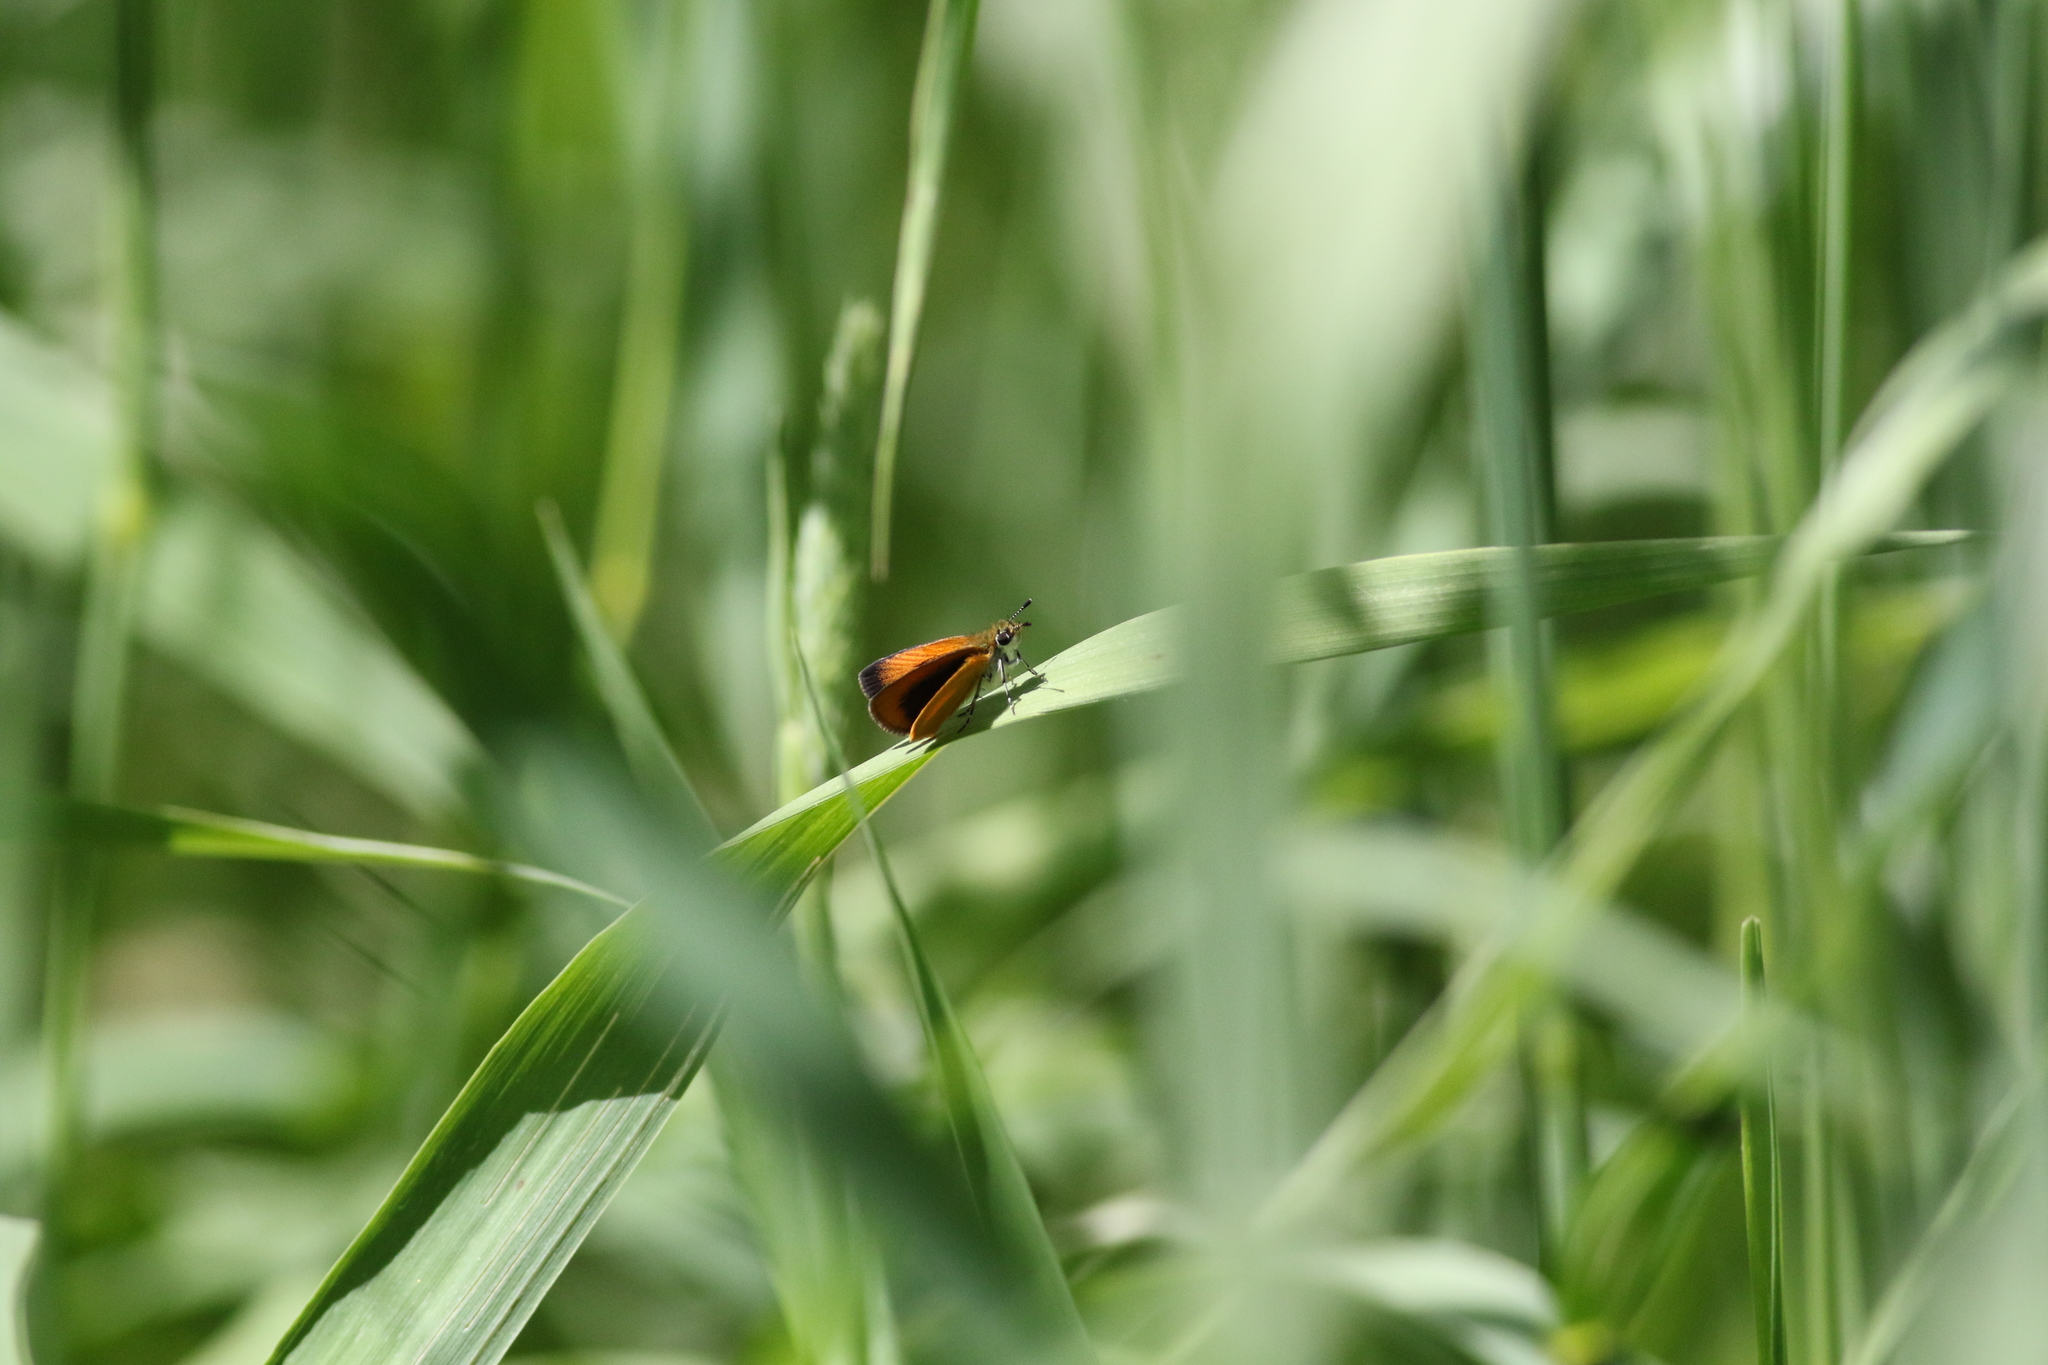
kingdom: Animalia
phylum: Arthropoda
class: Insecta
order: Lepidoptera
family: Hesperiidae
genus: Ancyloxypha
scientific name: Ancyloxypha numitor
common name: Least skipper
